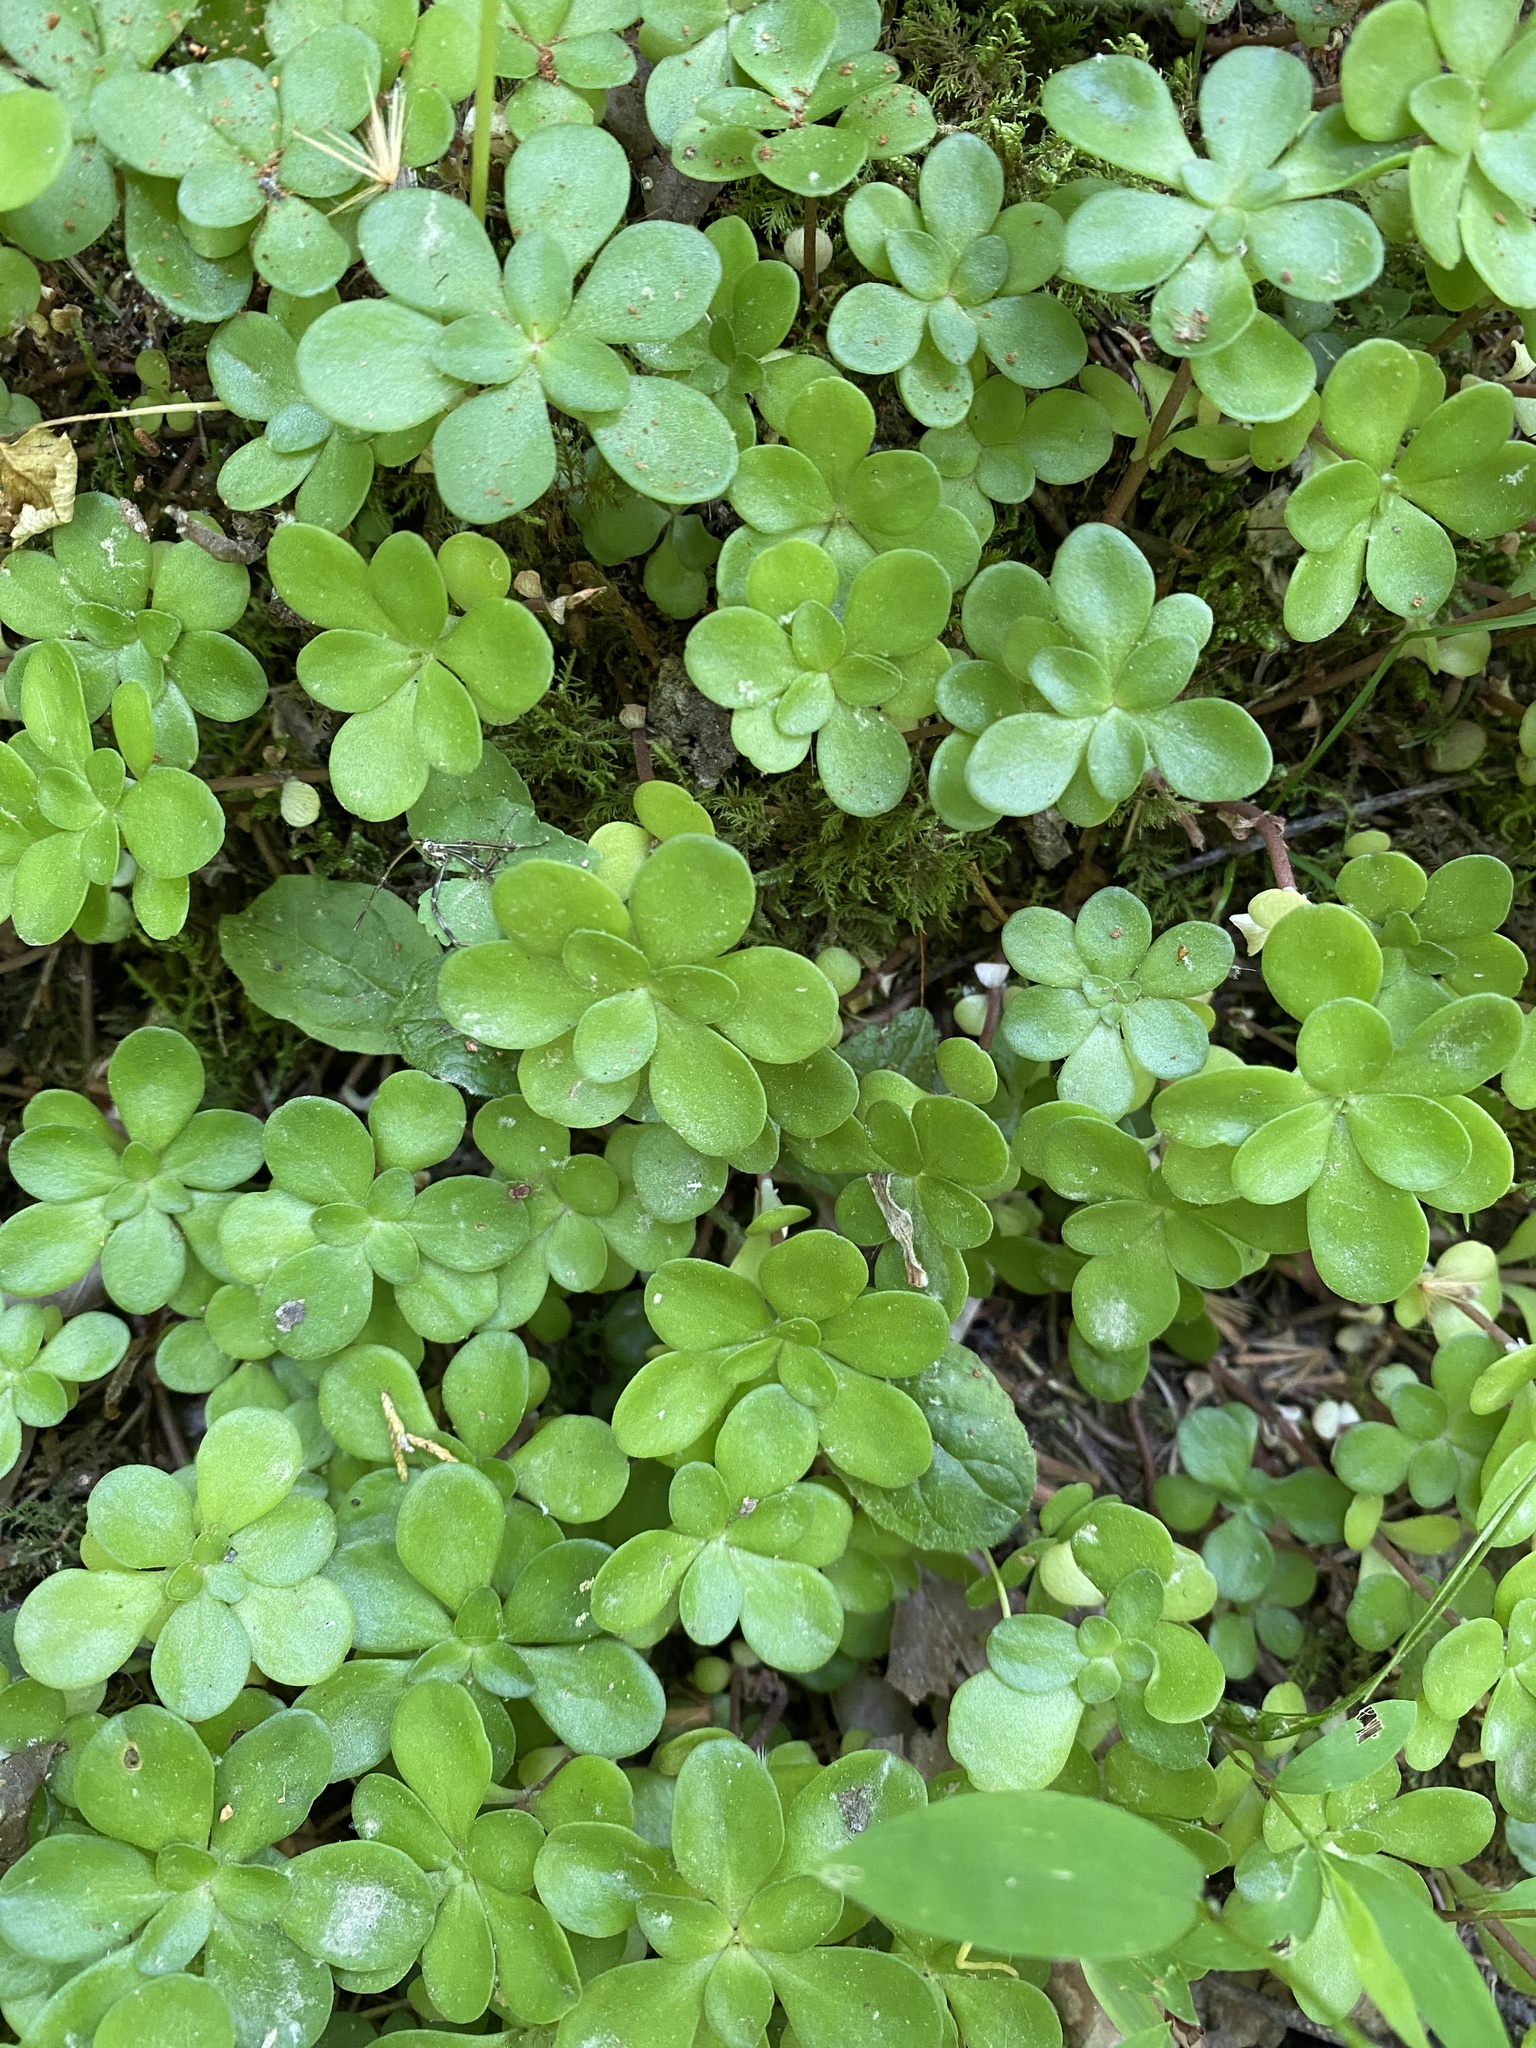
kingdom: Plantae
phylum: Tracheophyta
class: Magnoliopsida
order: Saxifragales
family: Crassulaceae
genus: Sedum
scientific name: Sedum ternatum
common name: Wild stonecrop
